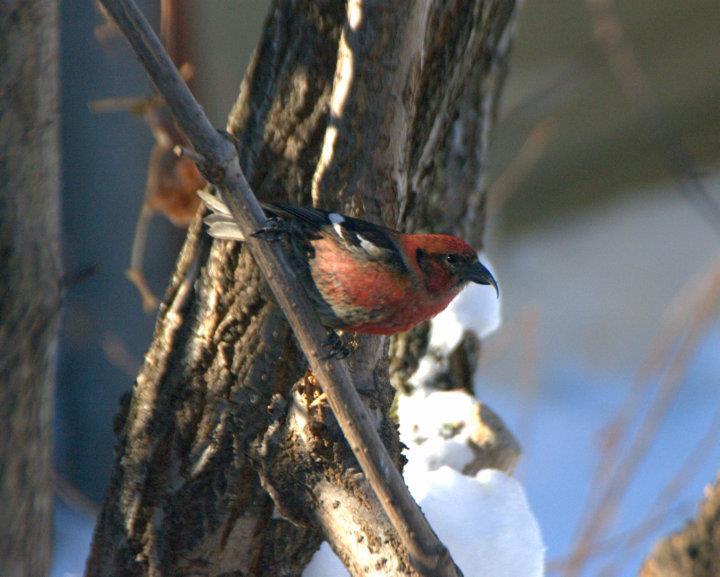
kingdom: Animalia
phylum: Chordata
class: Aves
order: Passeriformes
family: Fringillidae
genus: Loxia
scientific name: Loxia leucoptera
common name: Two-barred crossbill
